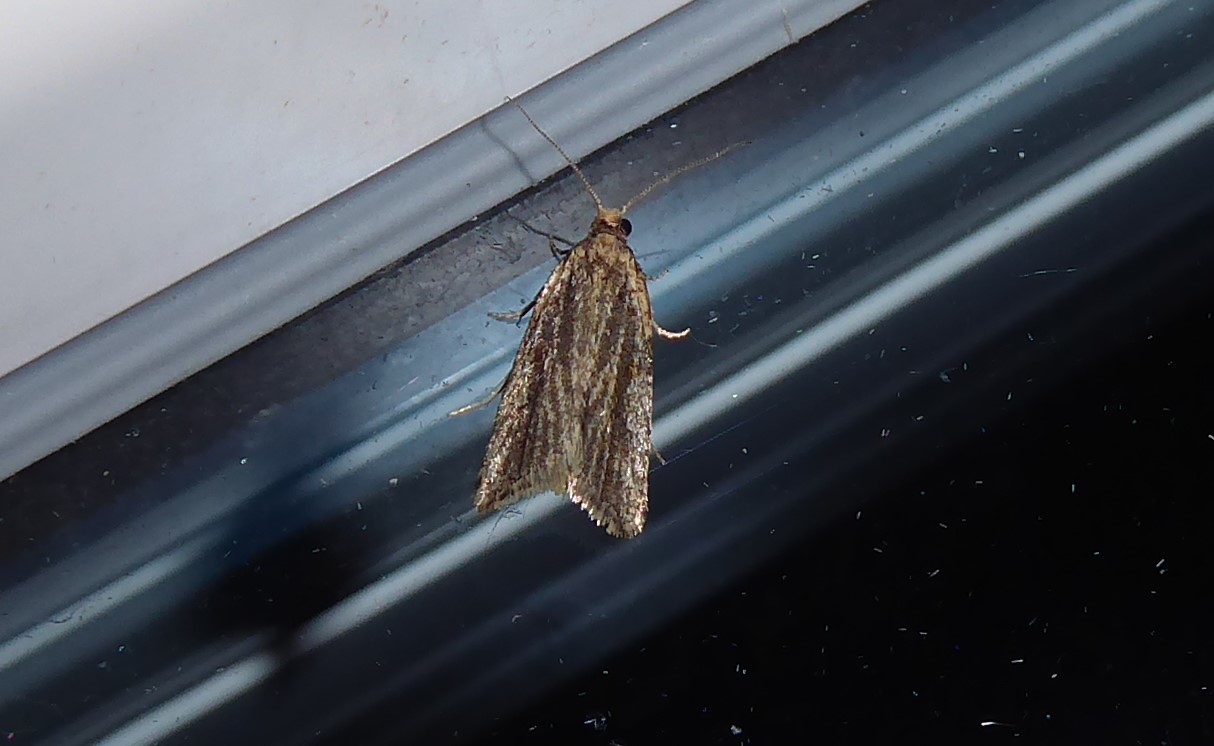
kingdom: Animalia
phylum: Arthropoda
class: Insecta
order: Lepidoptera
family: Tortricidae
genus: Capua
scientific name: Capua semiferana
